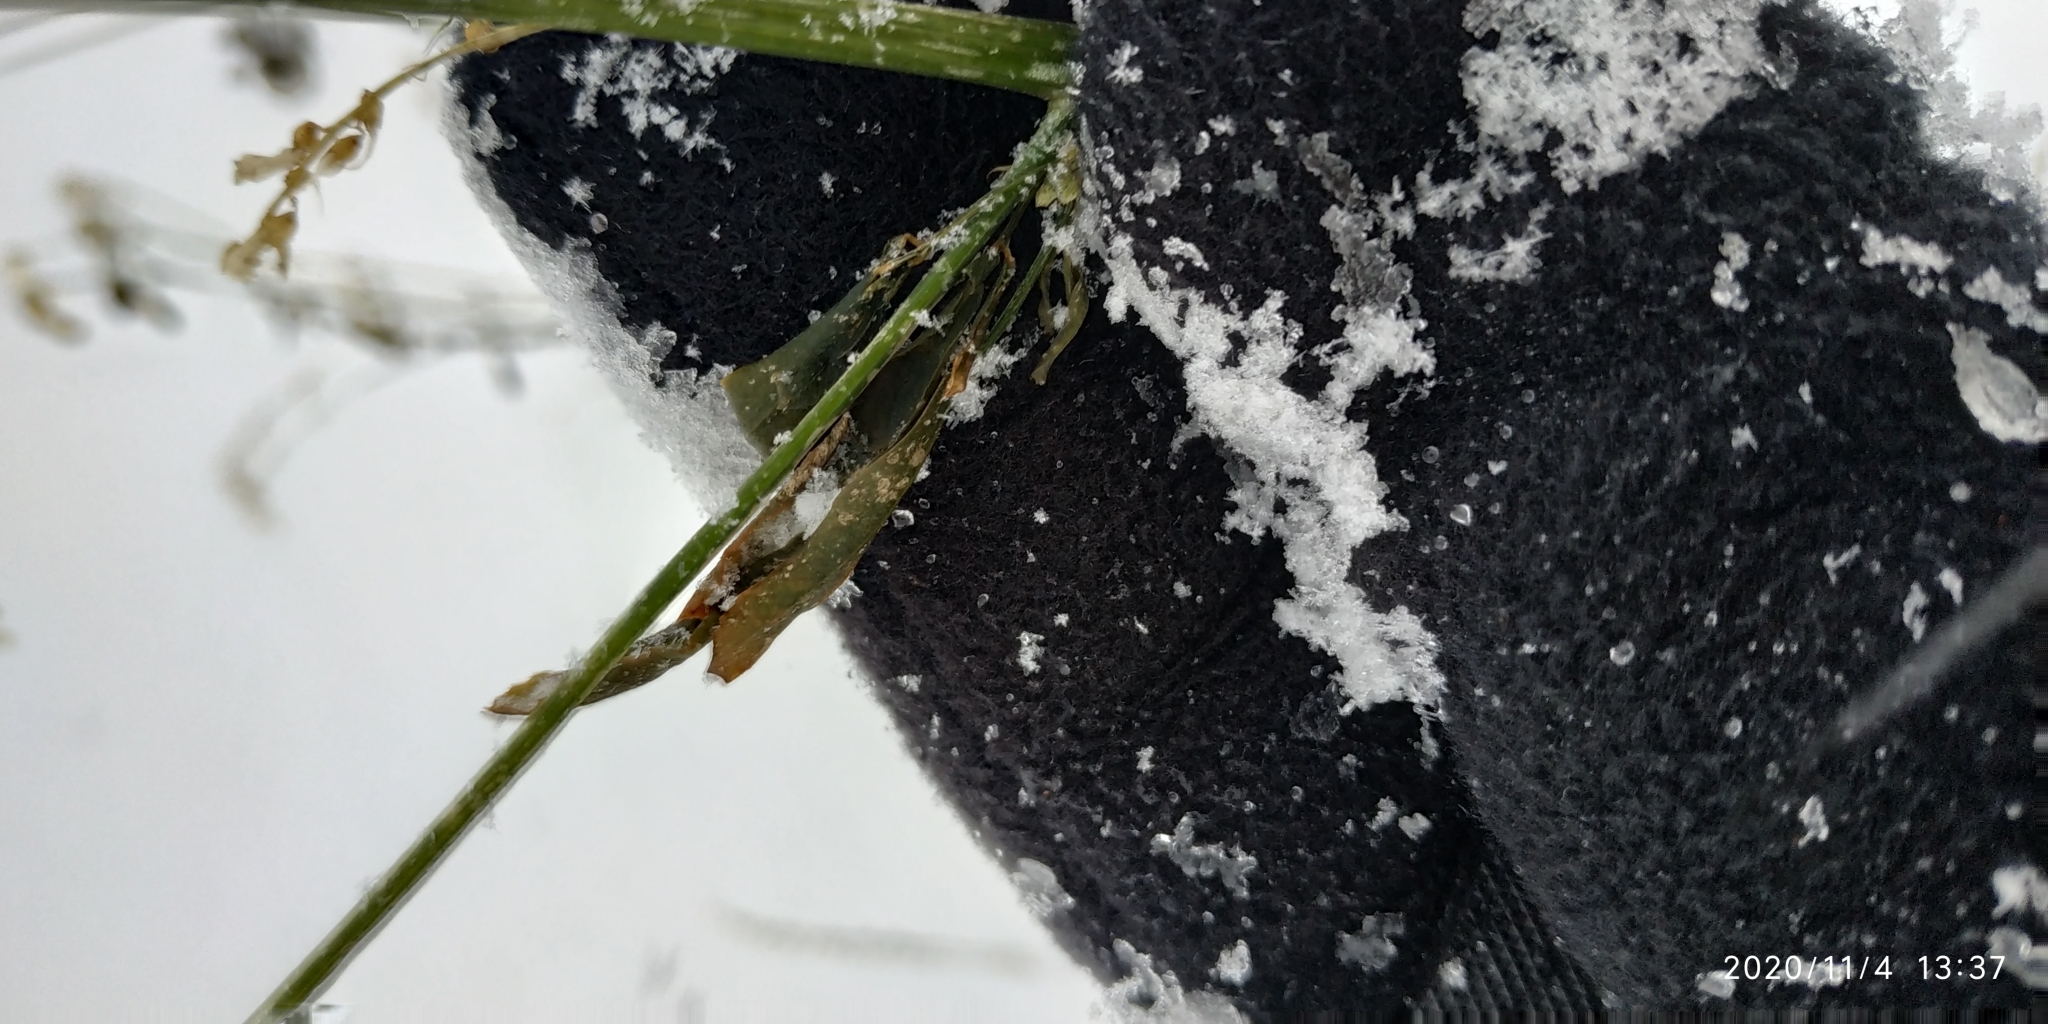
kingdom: Plantae
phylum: Tracheophyta
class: Magnoliopsida
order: Fabales
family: Fabaceae
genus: Melilotus
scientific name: Melilotus officinalis
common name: Sweetclover
